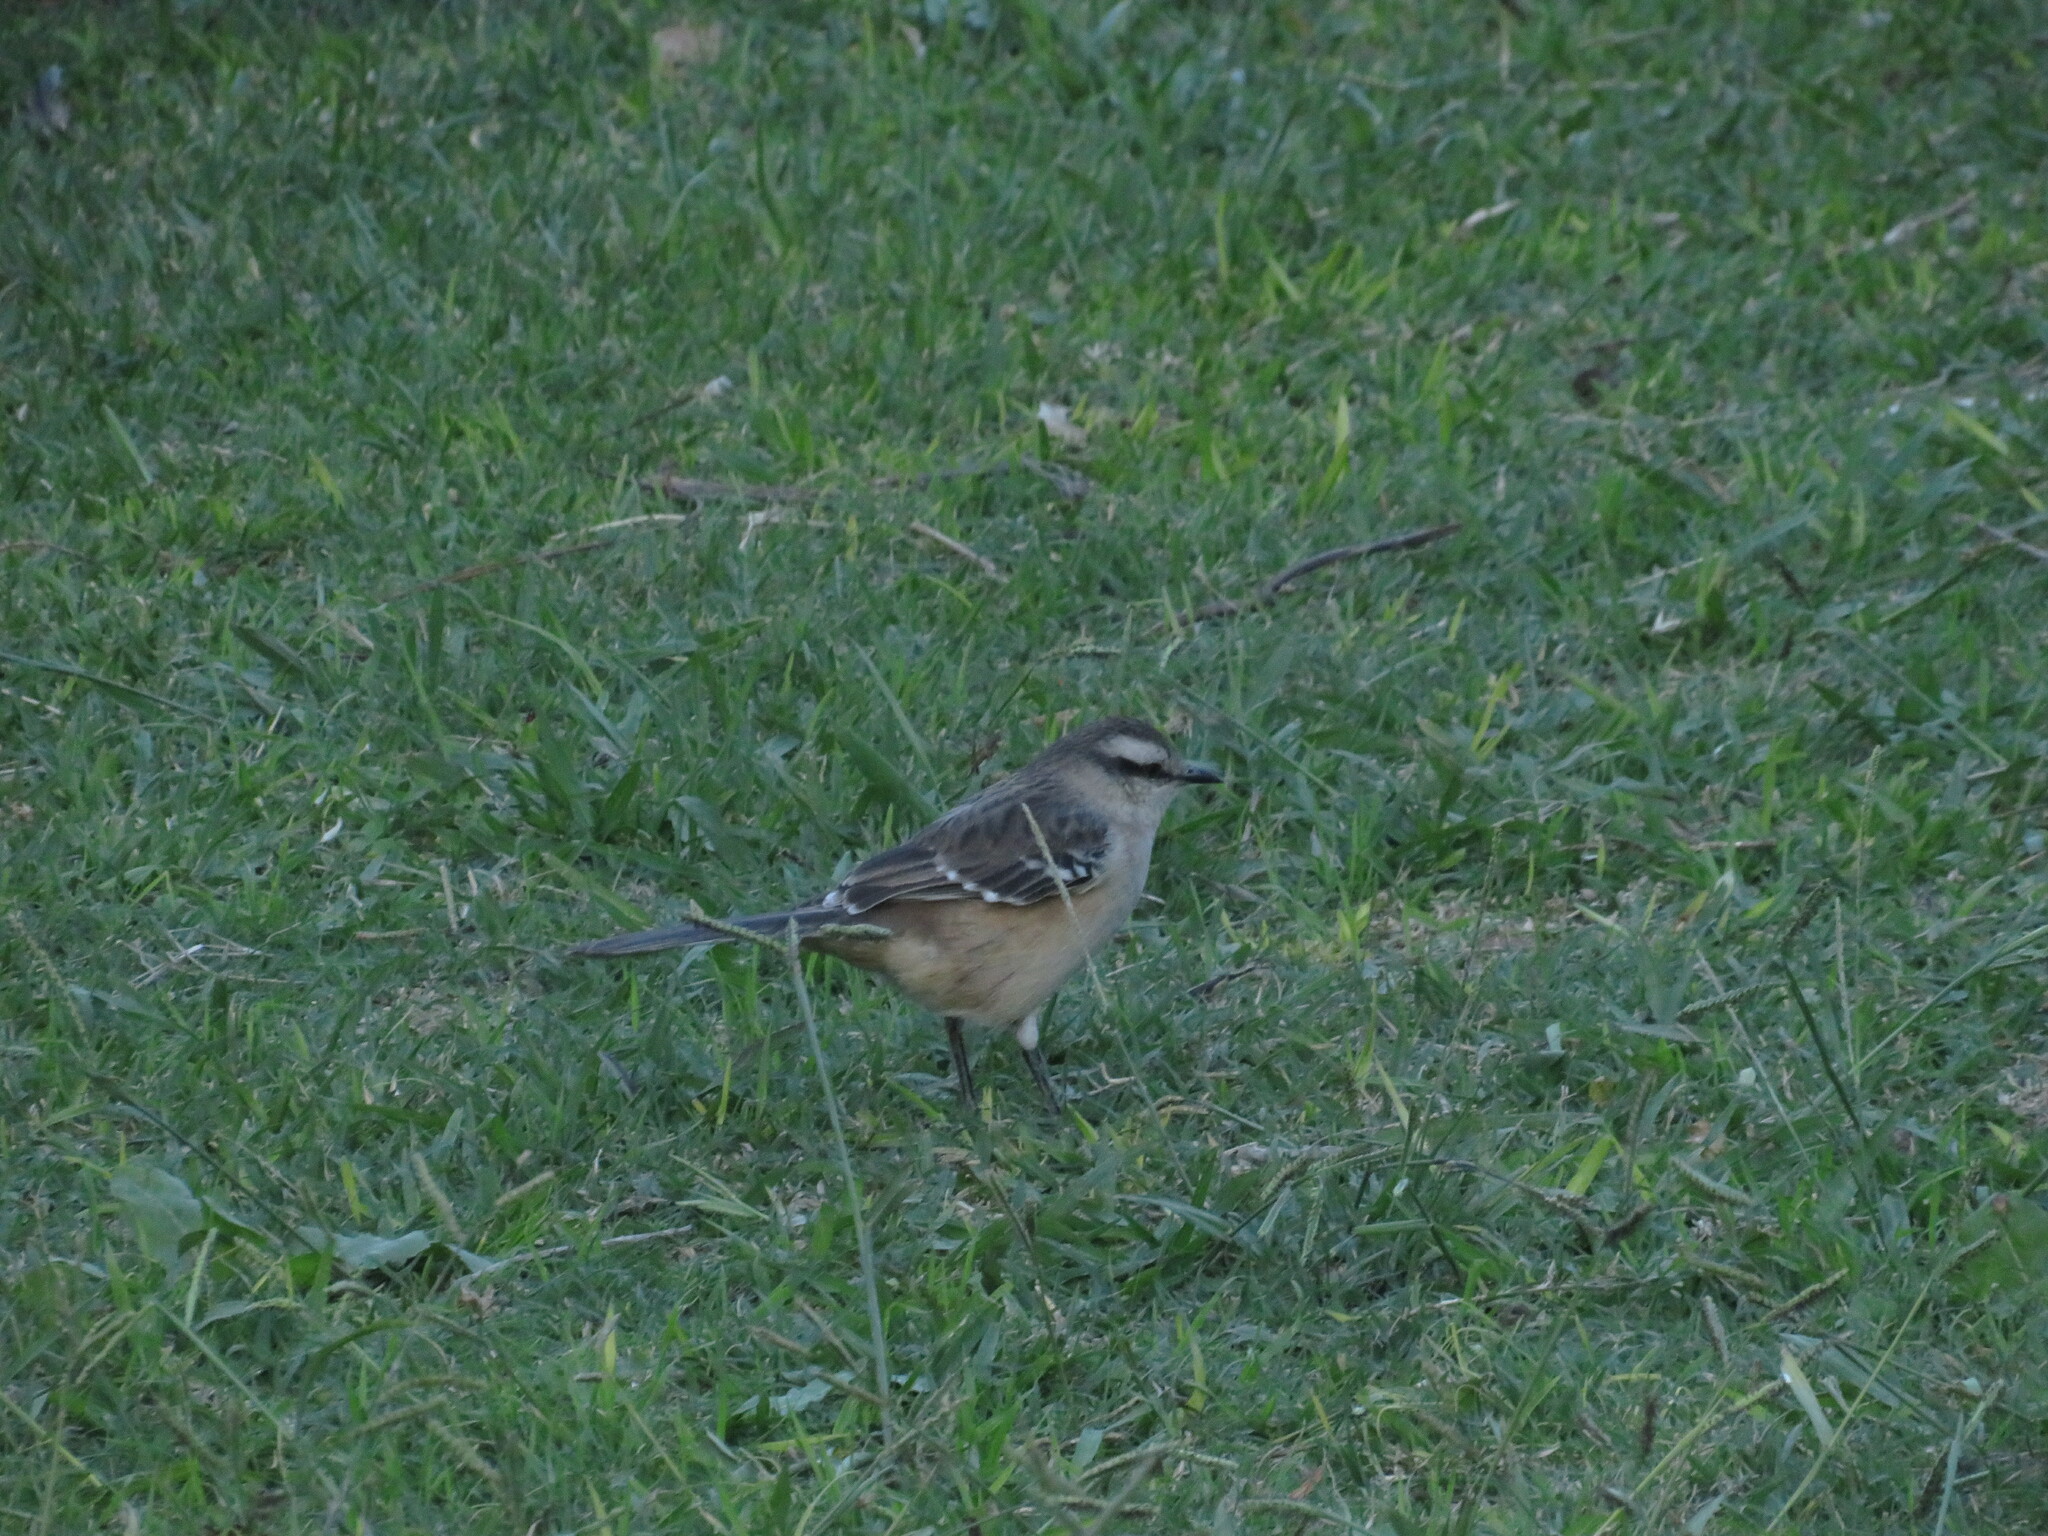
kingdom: Animalia
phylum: Chordata
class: Aves
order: Passeriformes
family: Mimidae
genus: Mimus
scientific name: Mimus saturninus
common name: Chalk-browed mockingbird
